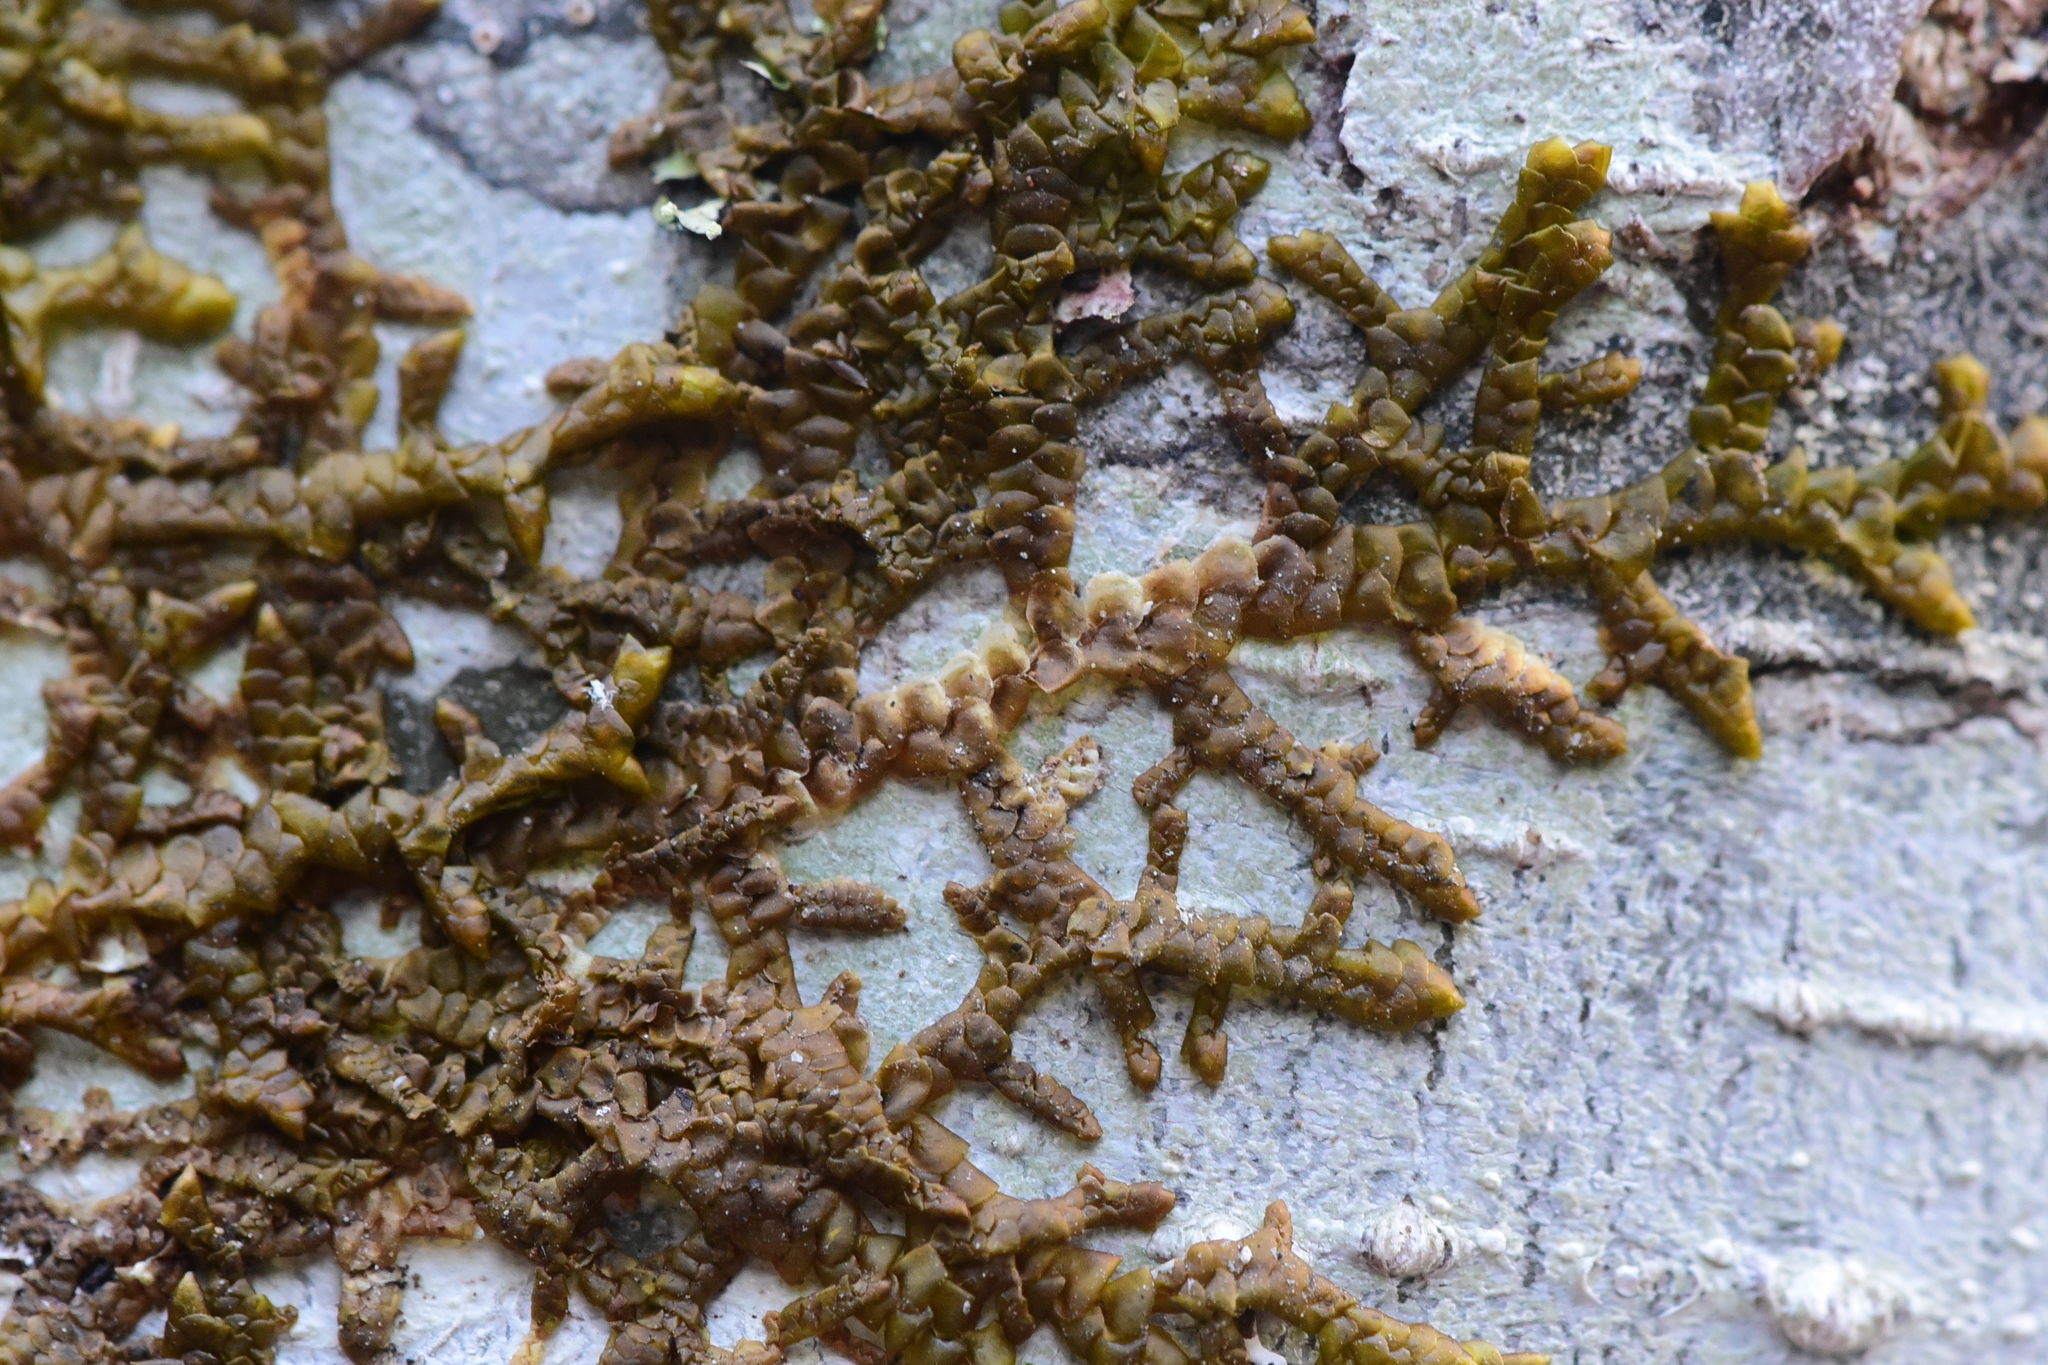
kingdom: Plantae
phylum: Marchantiophyta
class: Jungermanniopsida
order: Porellales
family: Porellaceae
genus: Porella
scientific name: Porella navicularis
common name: Tree ruffle liverwort
